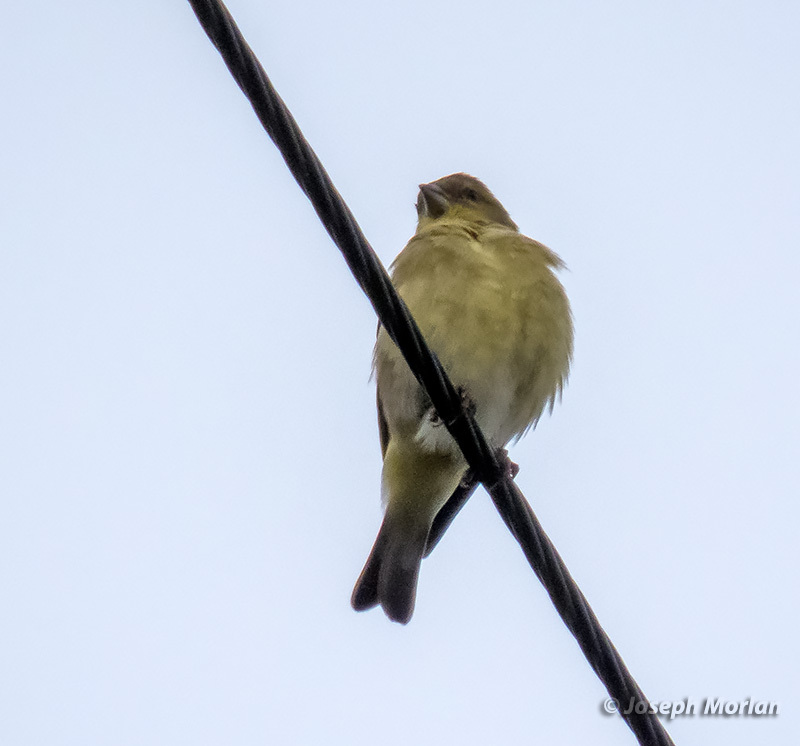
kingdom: Animalia
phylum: Chordata
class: Aves
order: Passeriformes
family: Fringillidae
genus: Spinus
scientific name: Spinus psaltria
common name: Lesser goldfinch
